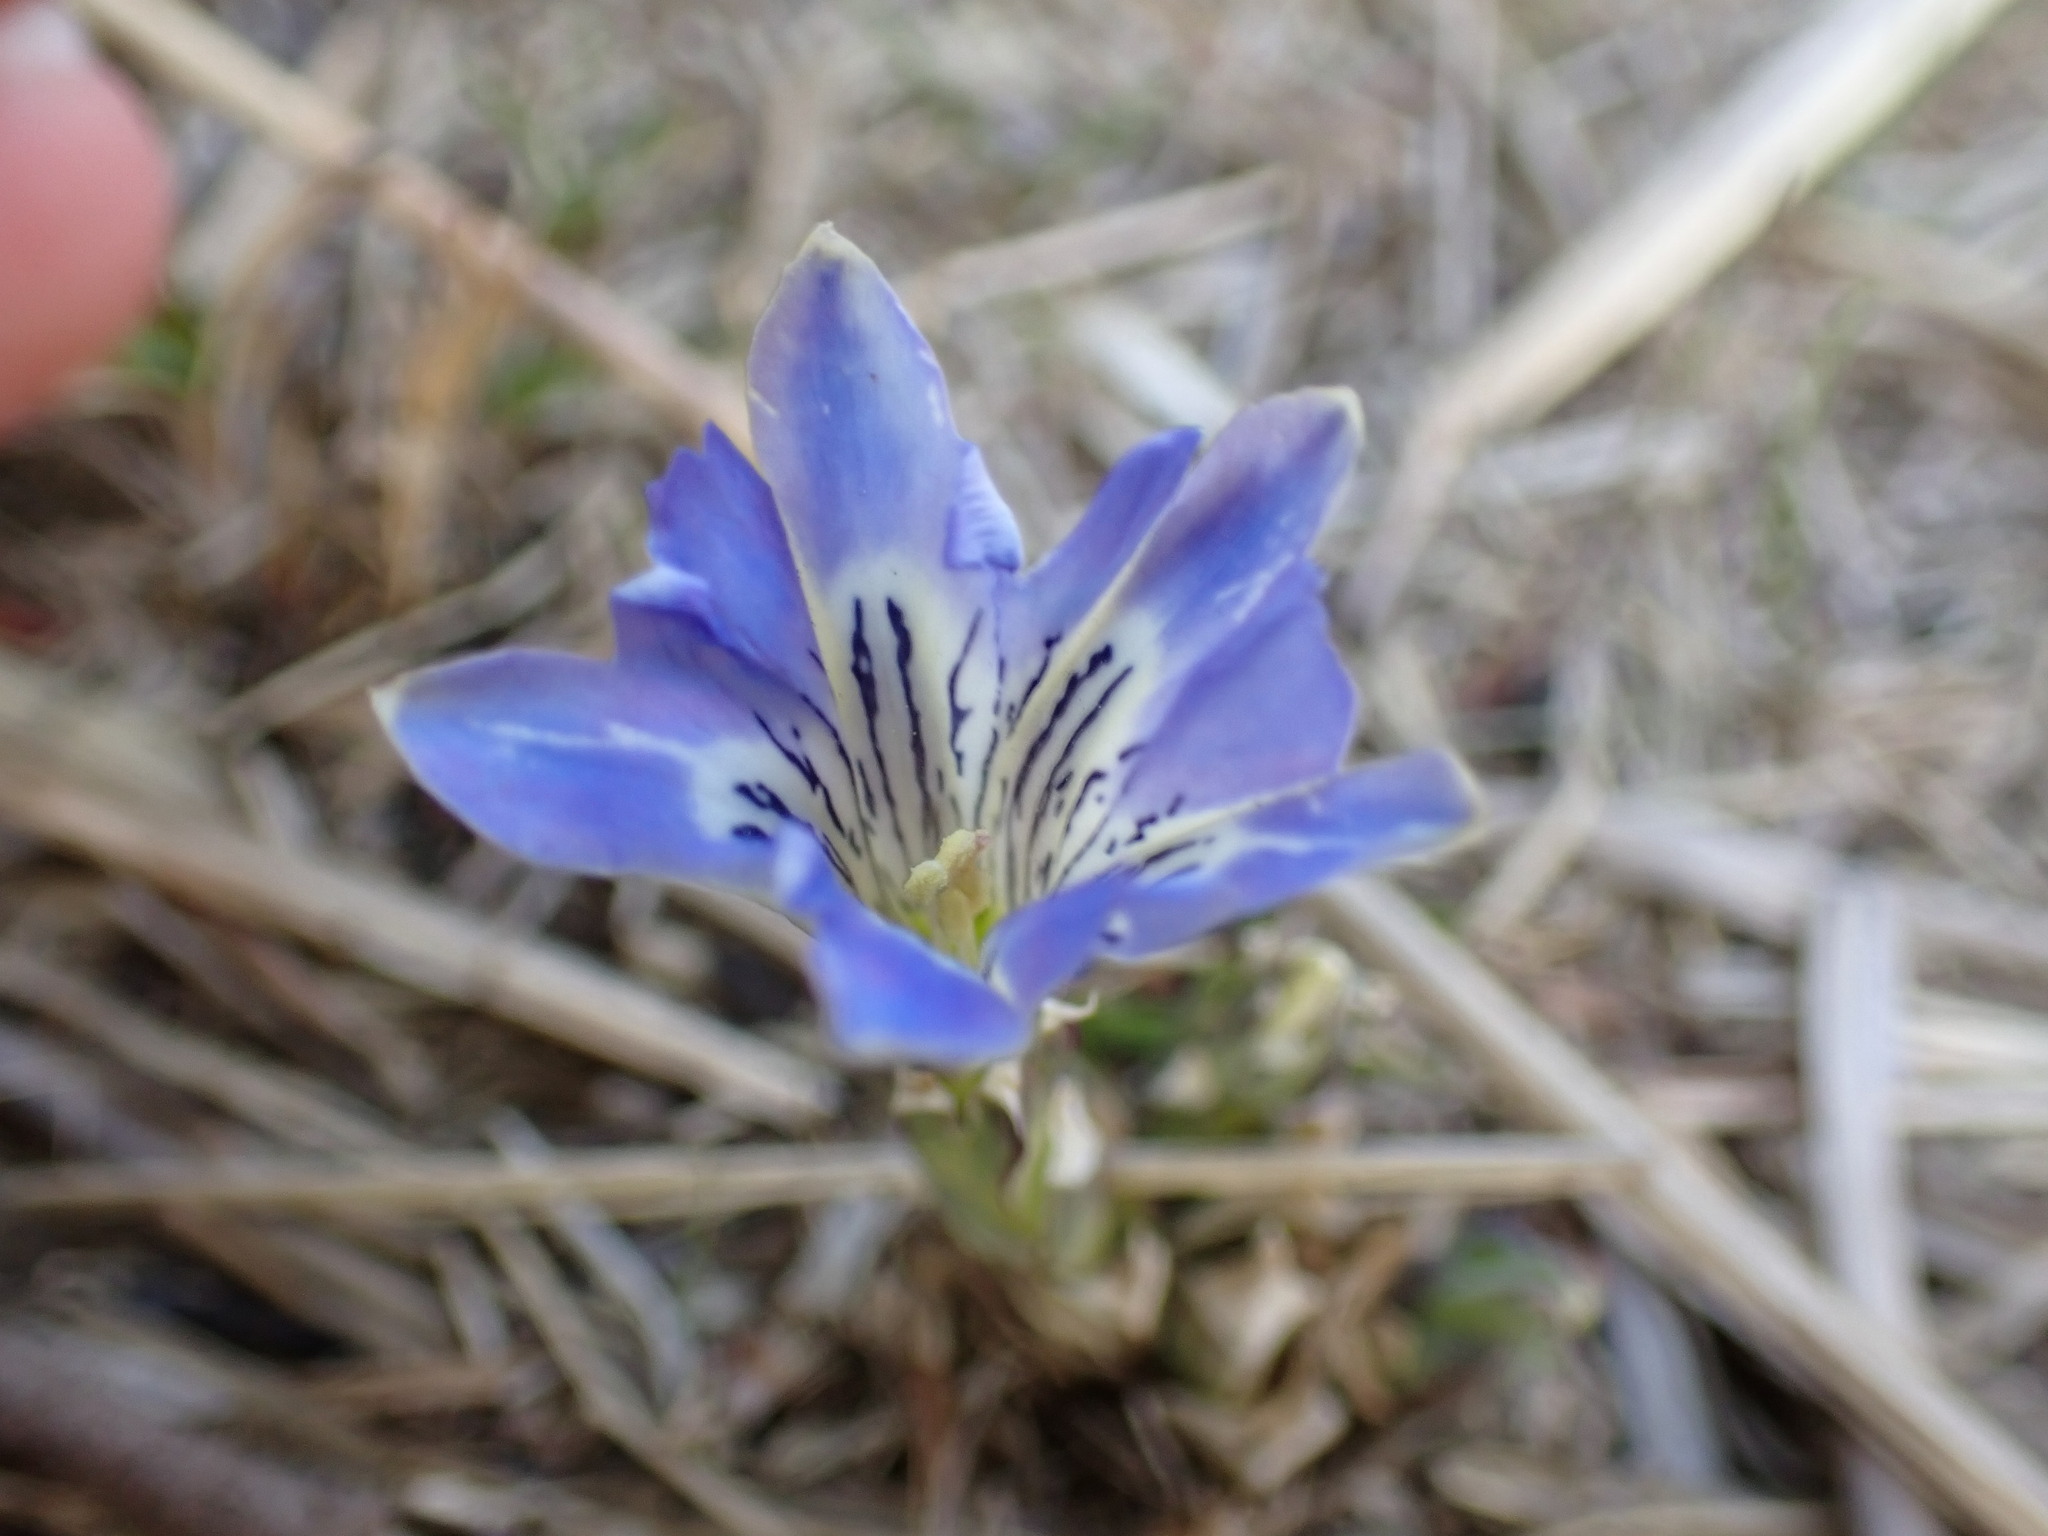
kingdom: Plantae
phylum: Tracheophyta
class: Magnoliopsida
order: Gentianales
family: Gentianaceae
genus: Gentiana
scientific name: Gentiana thunbergii
